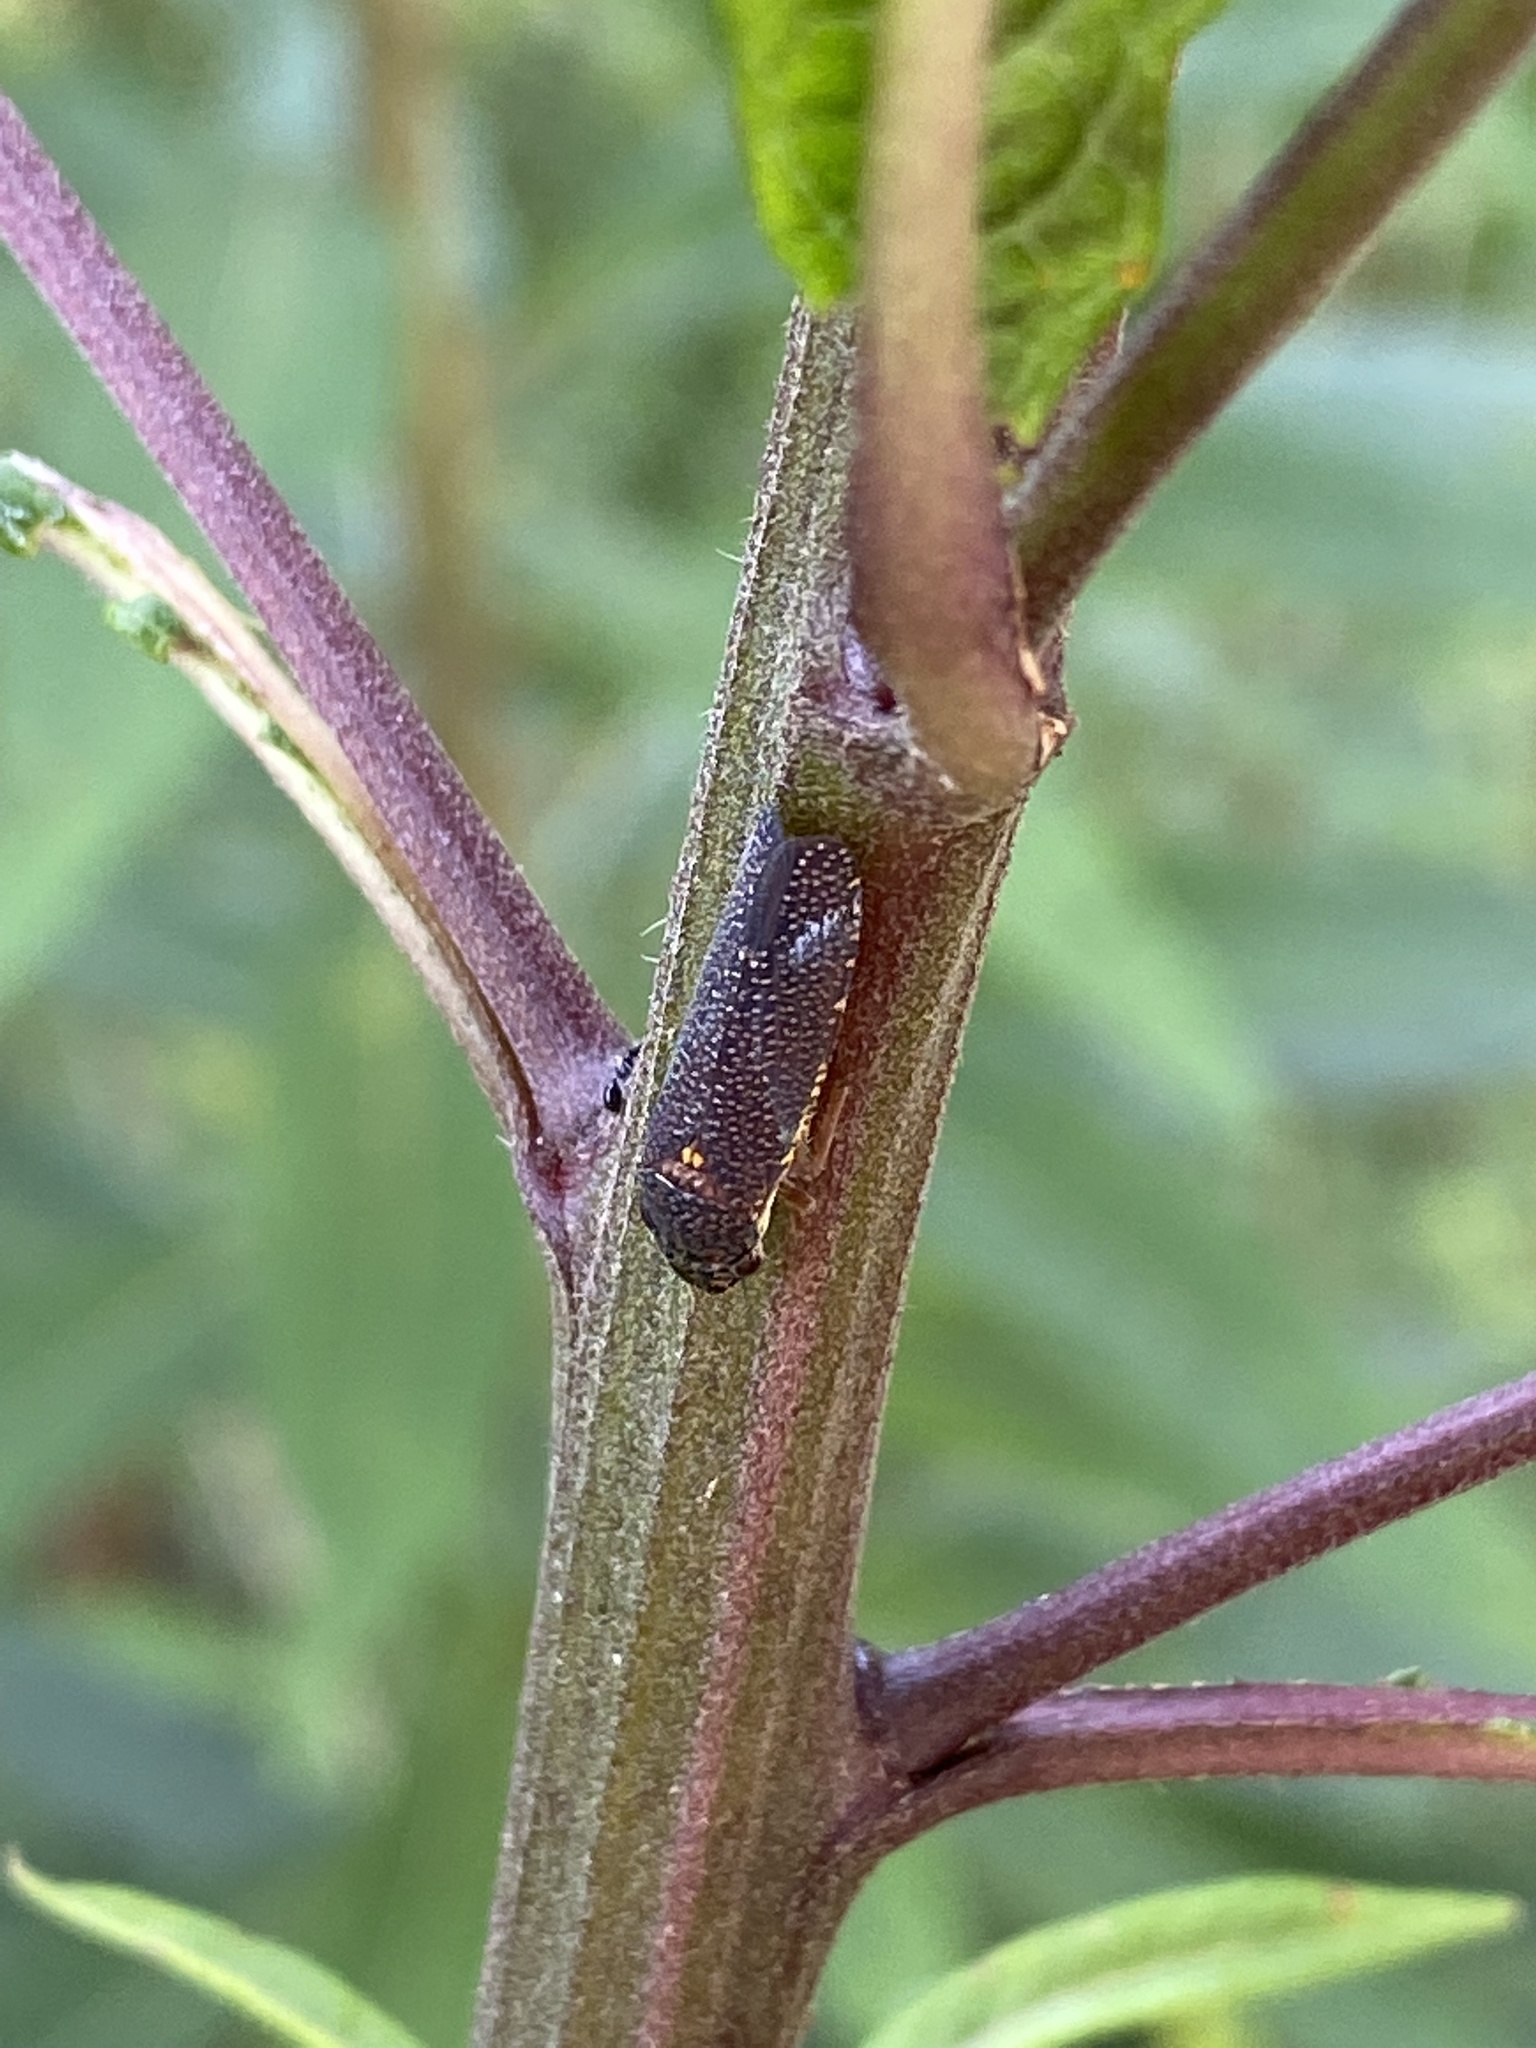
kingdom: Animalia
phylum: Arthropoda
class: Insecta
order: Hemiptera
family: Cicadellidae
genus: Paraulacizes
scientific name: Paraulacizes irrorata
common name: Speckled sharpshooter
